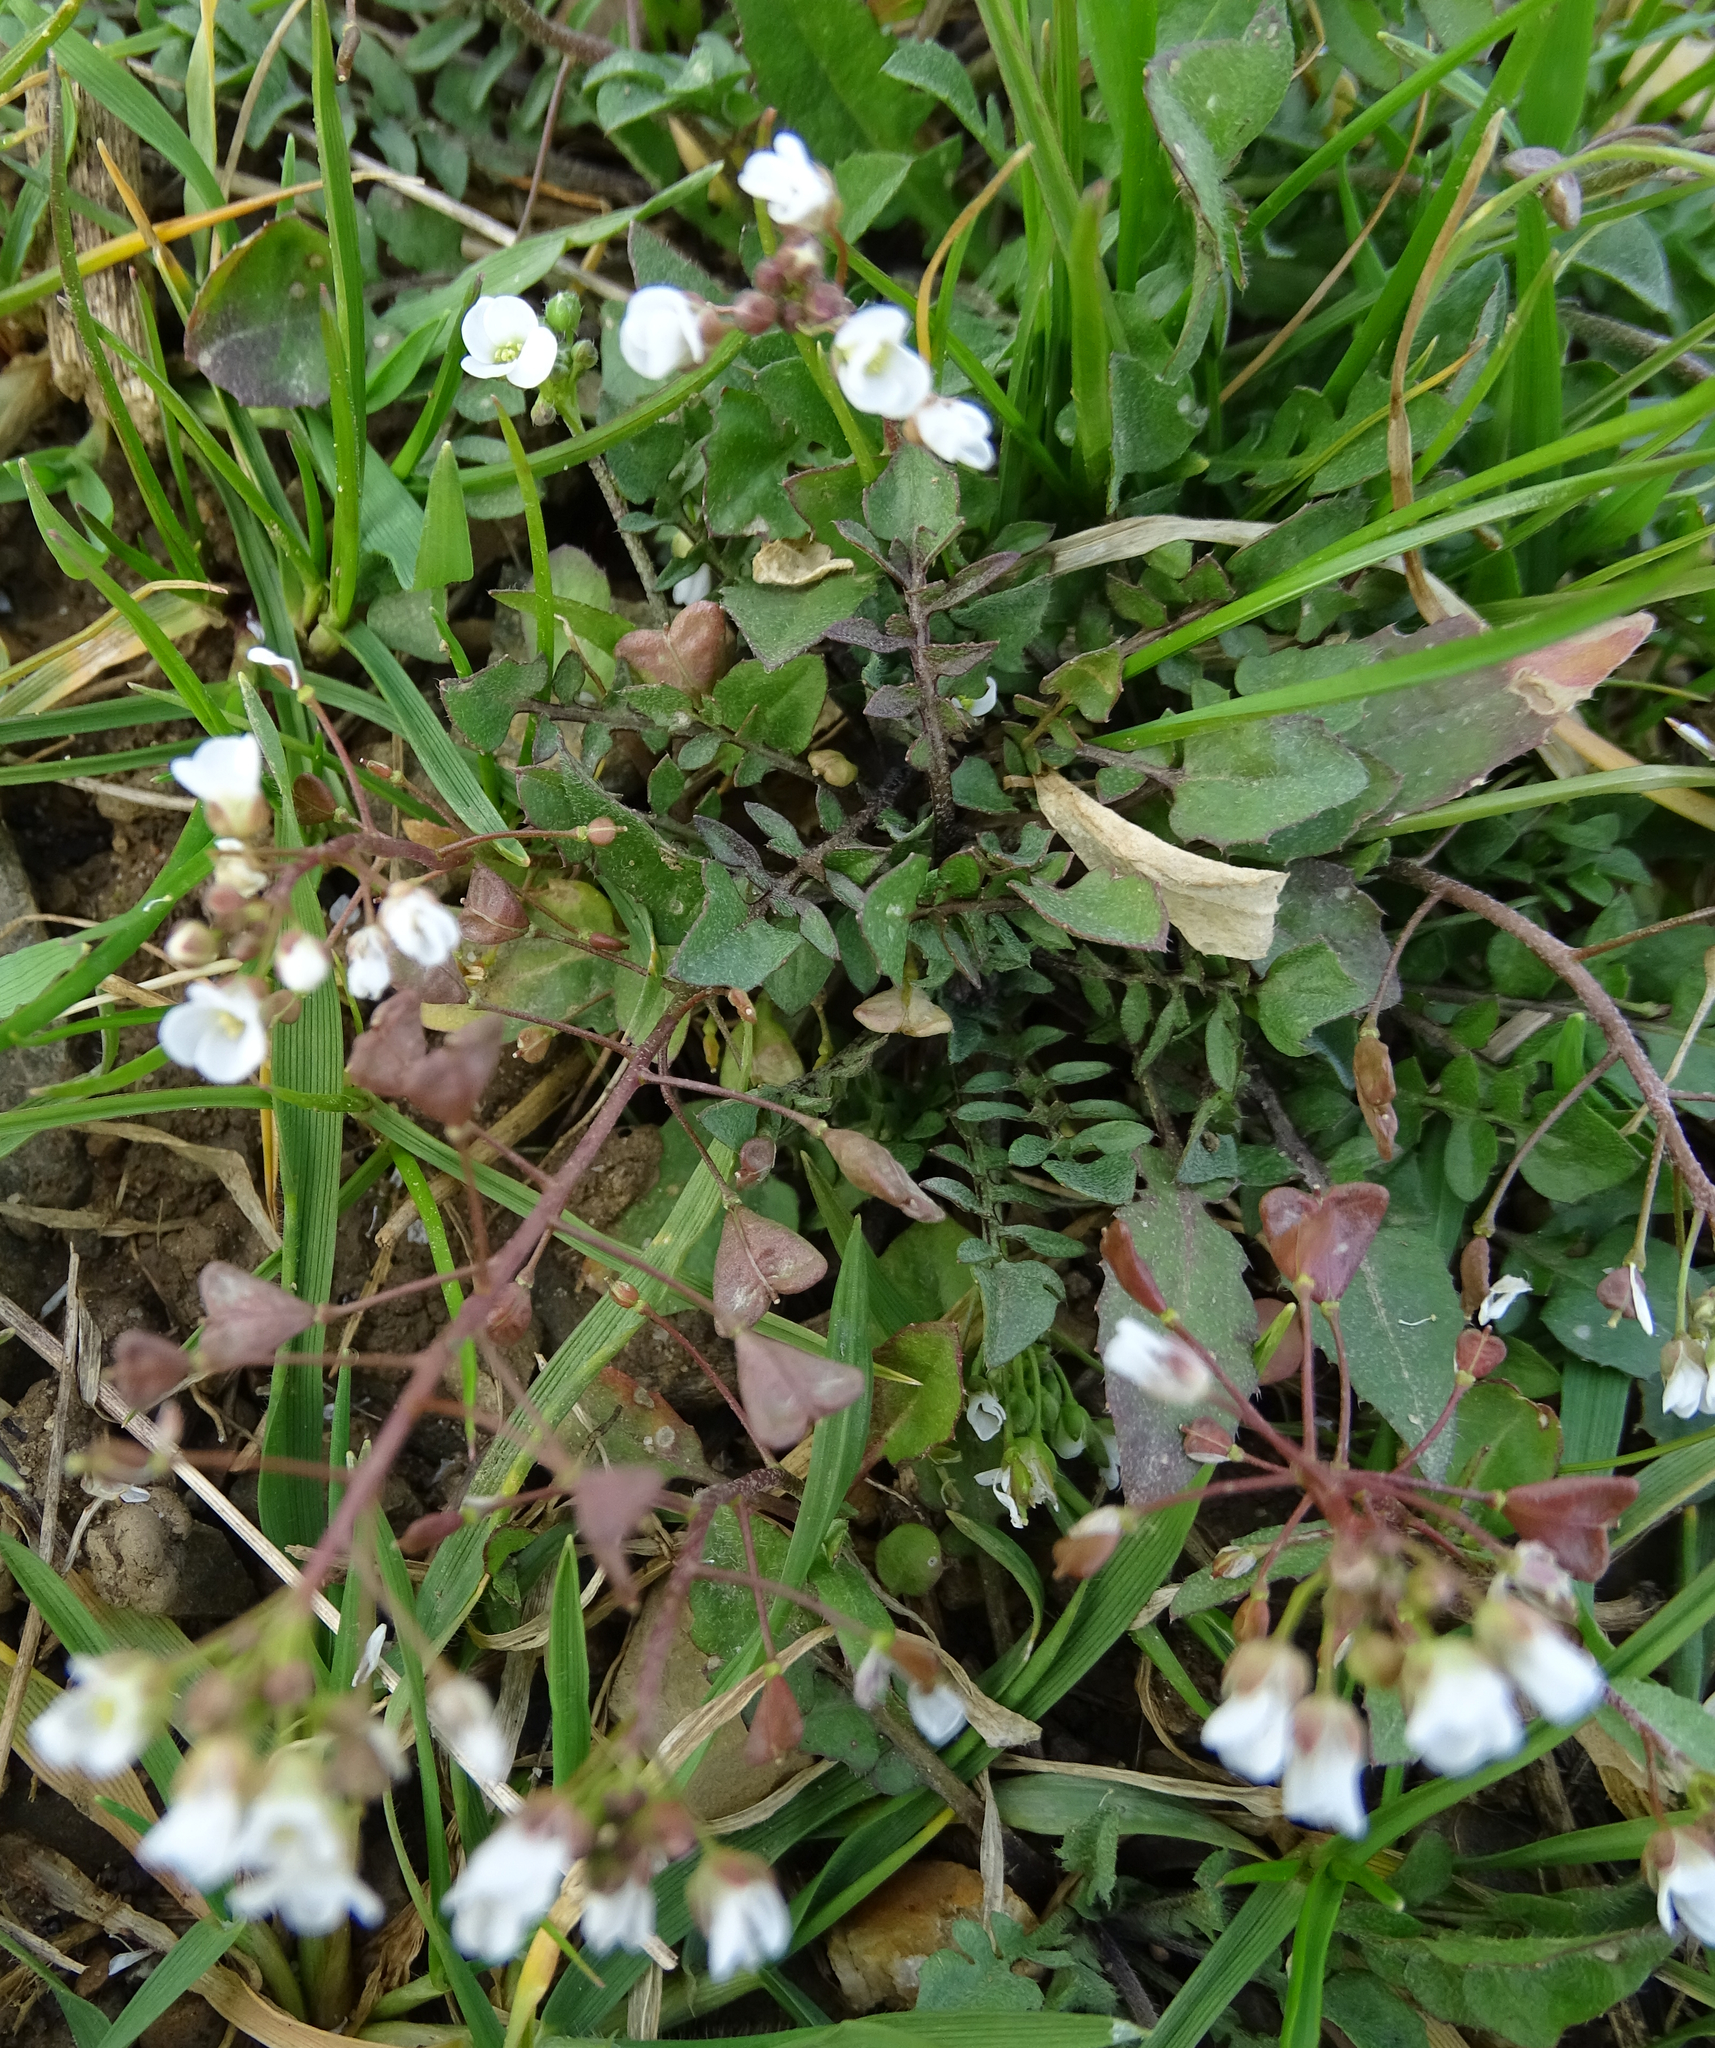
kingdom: Plantae
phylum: Tracheophyta
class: Magnoliopsida
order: Brassicales
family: Brassicaceae
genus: Capsella
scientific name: Capsella bursa-pastoris
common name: Shepherd's purse
